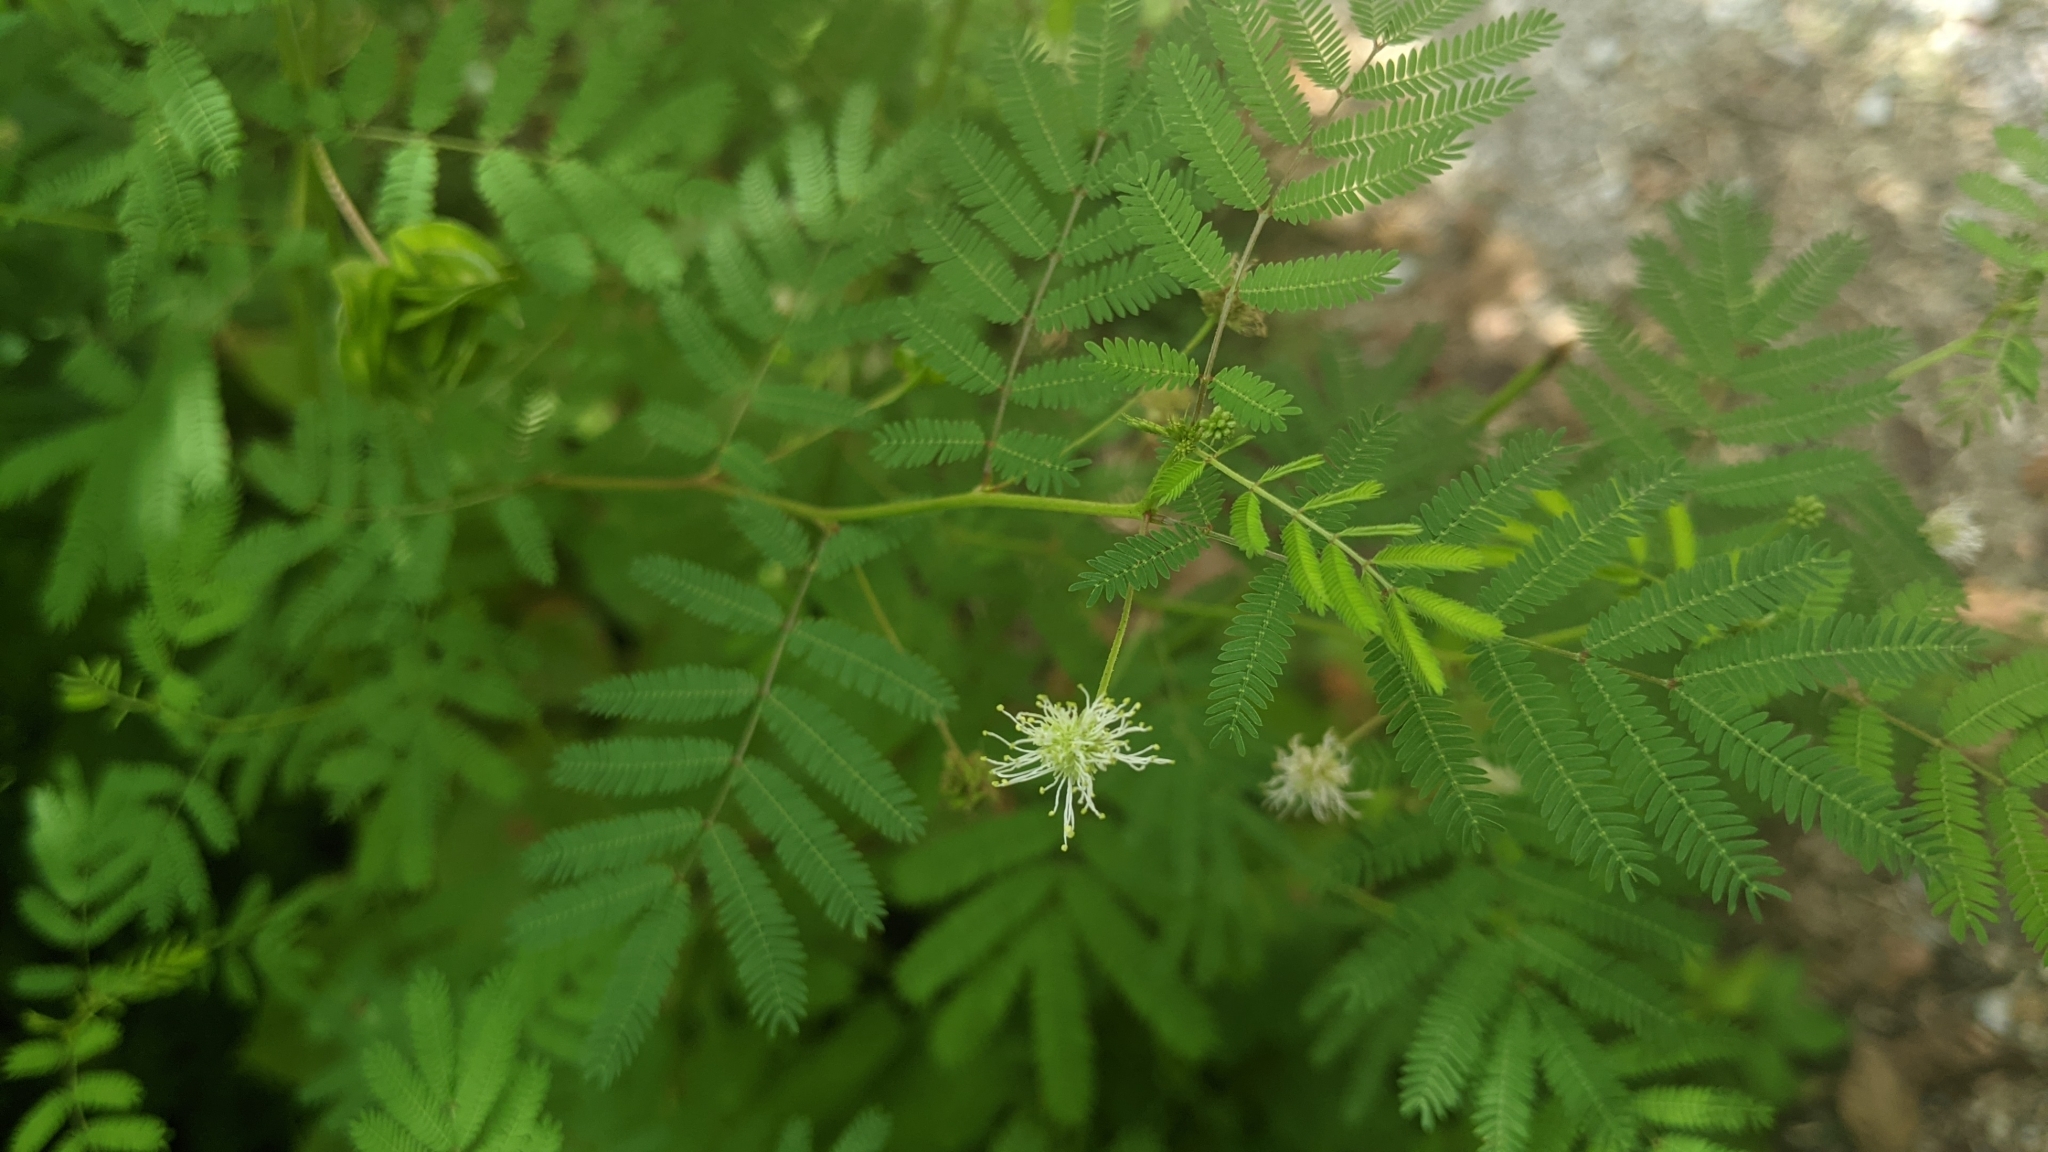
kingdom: Plantae
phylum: Tracheophyta
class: Magnoliopsida
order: Fabales
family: Fabaceae
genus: Desmanthus
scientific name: Desmanthus illinoensis
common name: Illinois bundle-flower
